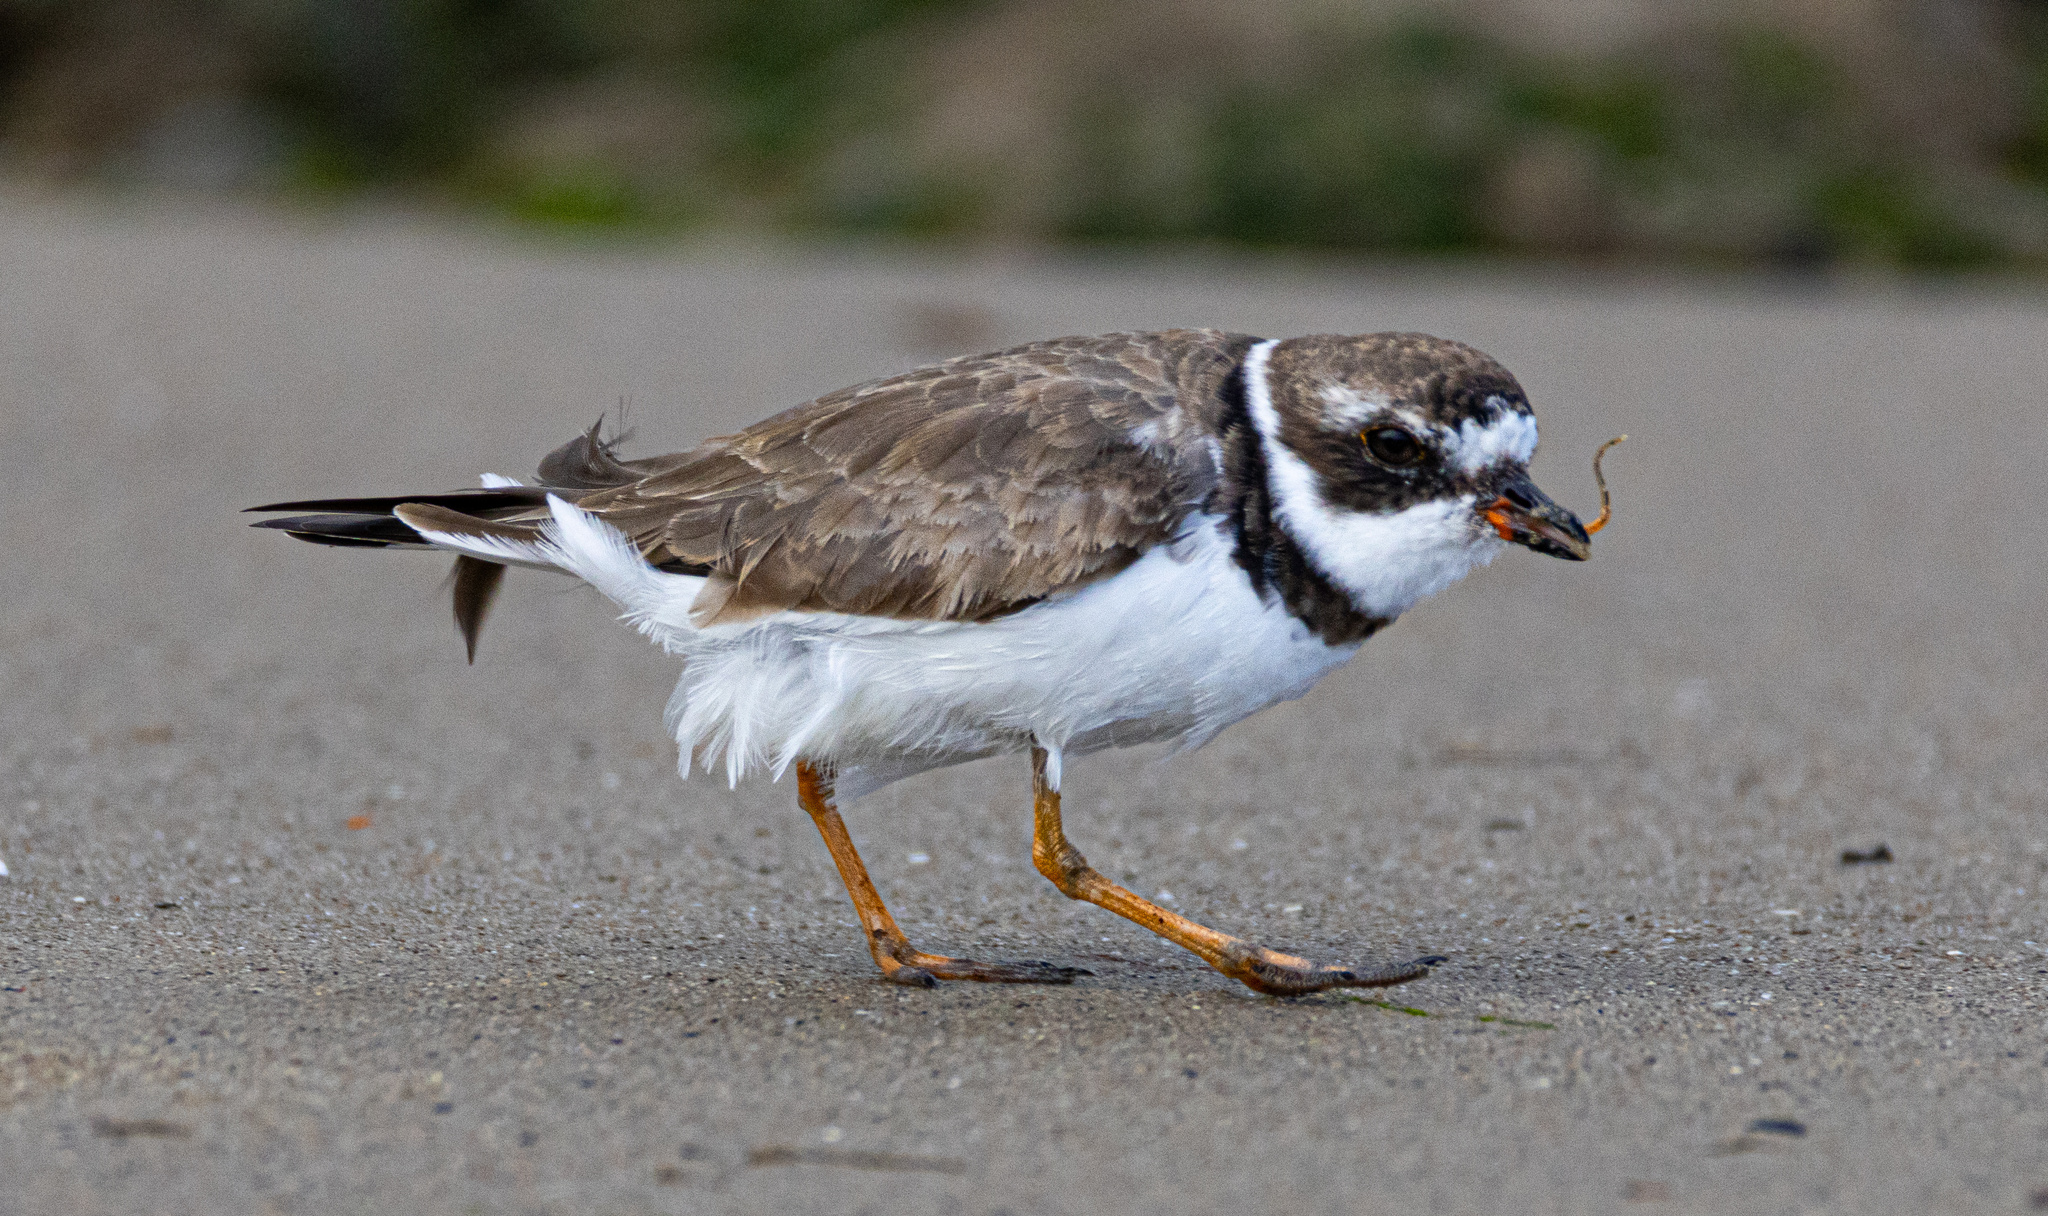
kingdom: Animalia
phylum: Chordata
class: Aves
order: Charadriiformes
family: Charadriidae
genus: Charadrius
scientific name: Charadrius semipalmatus
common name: Semipalmated plover
